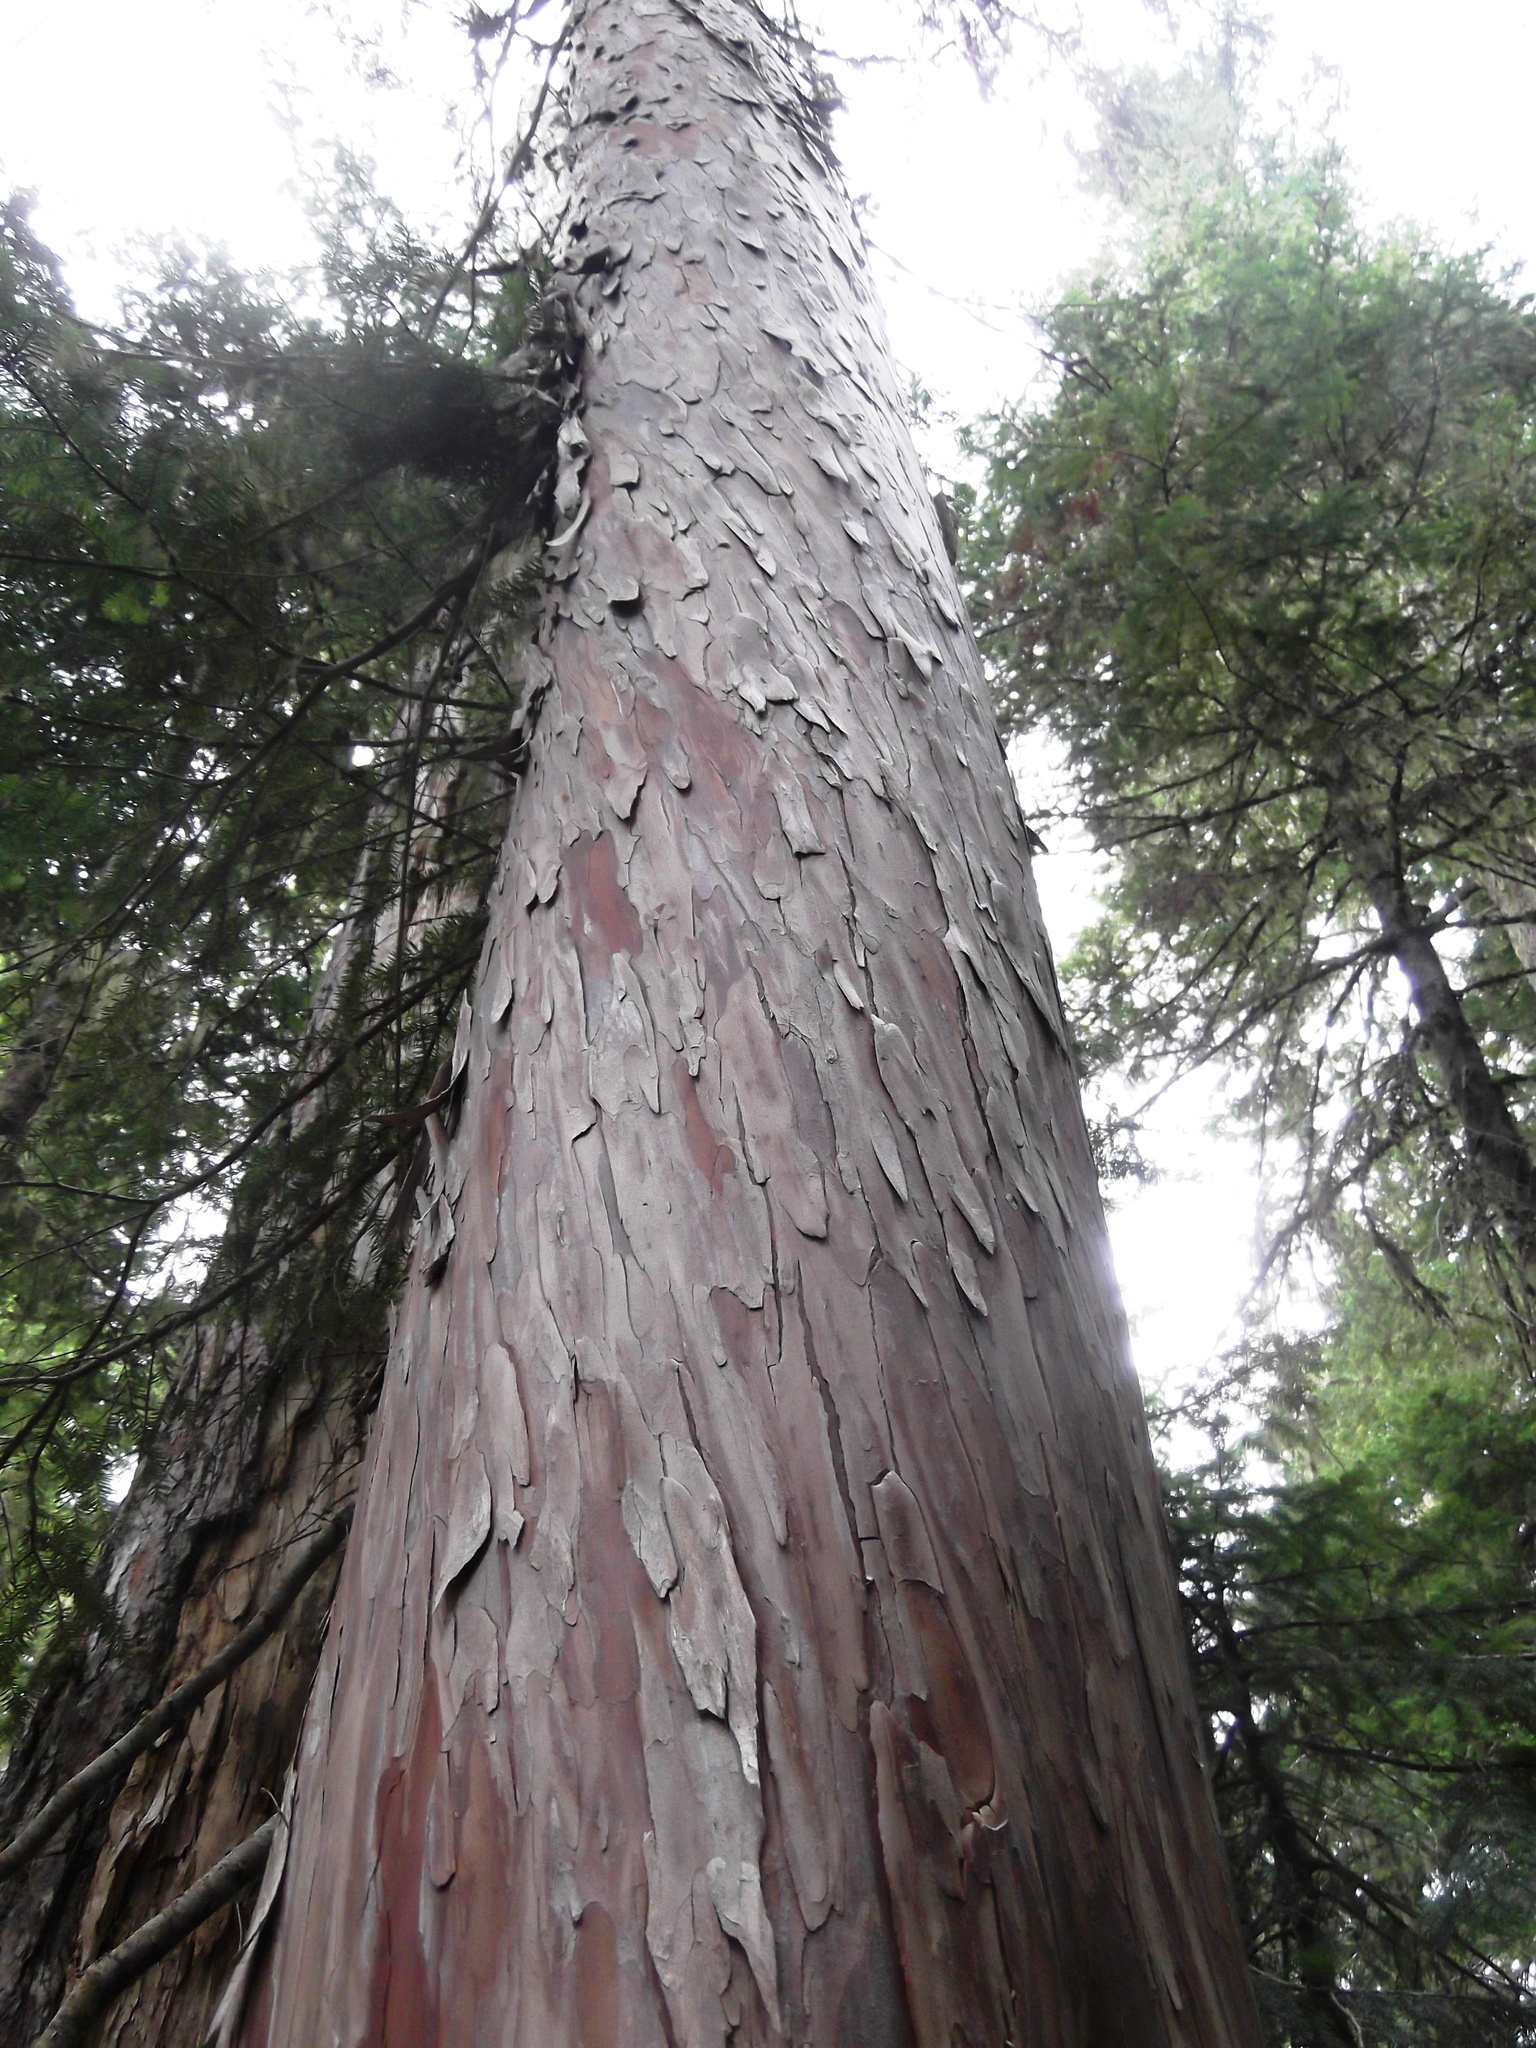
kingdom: Plantae
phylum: Tracheophyta
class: Pinopsida
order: Pinales
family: Cupressaceae
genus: Xanthocyparis
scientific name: Xanthocyparis nootkatensis
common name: Nootka cypress
